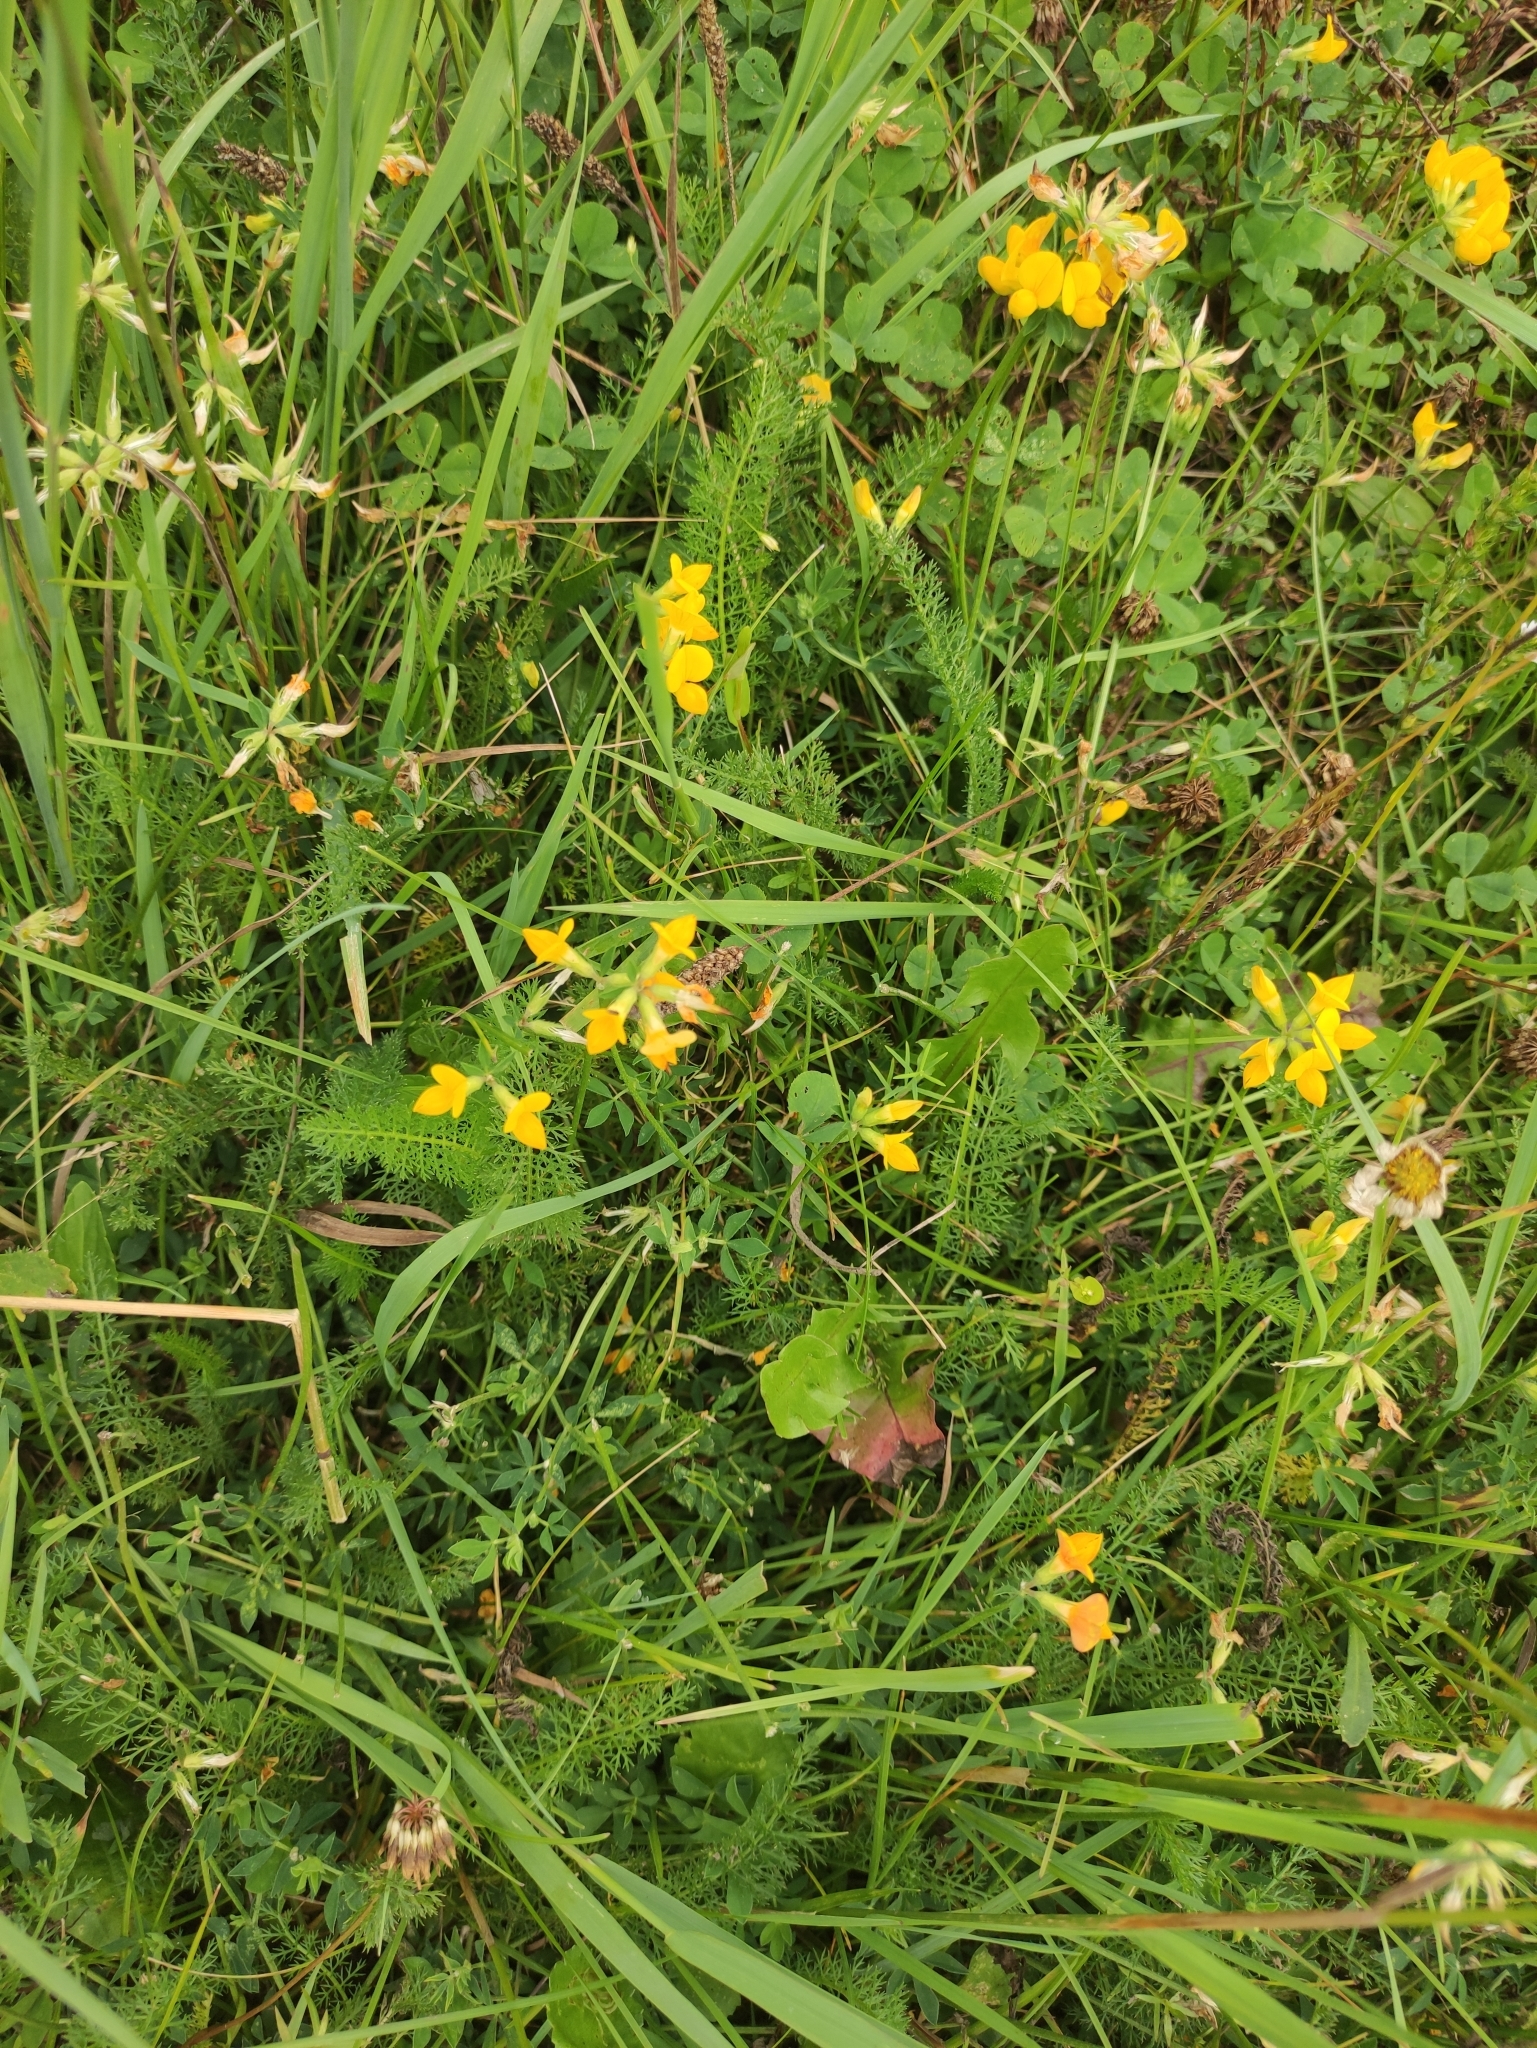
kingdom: Plantae
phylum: Tracheophyta
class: Magnoliopsida
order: Fabales
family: Fabaceae
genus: Lotus
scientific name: Lotus corniculatus
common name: Common bird's-foot-trefoil
